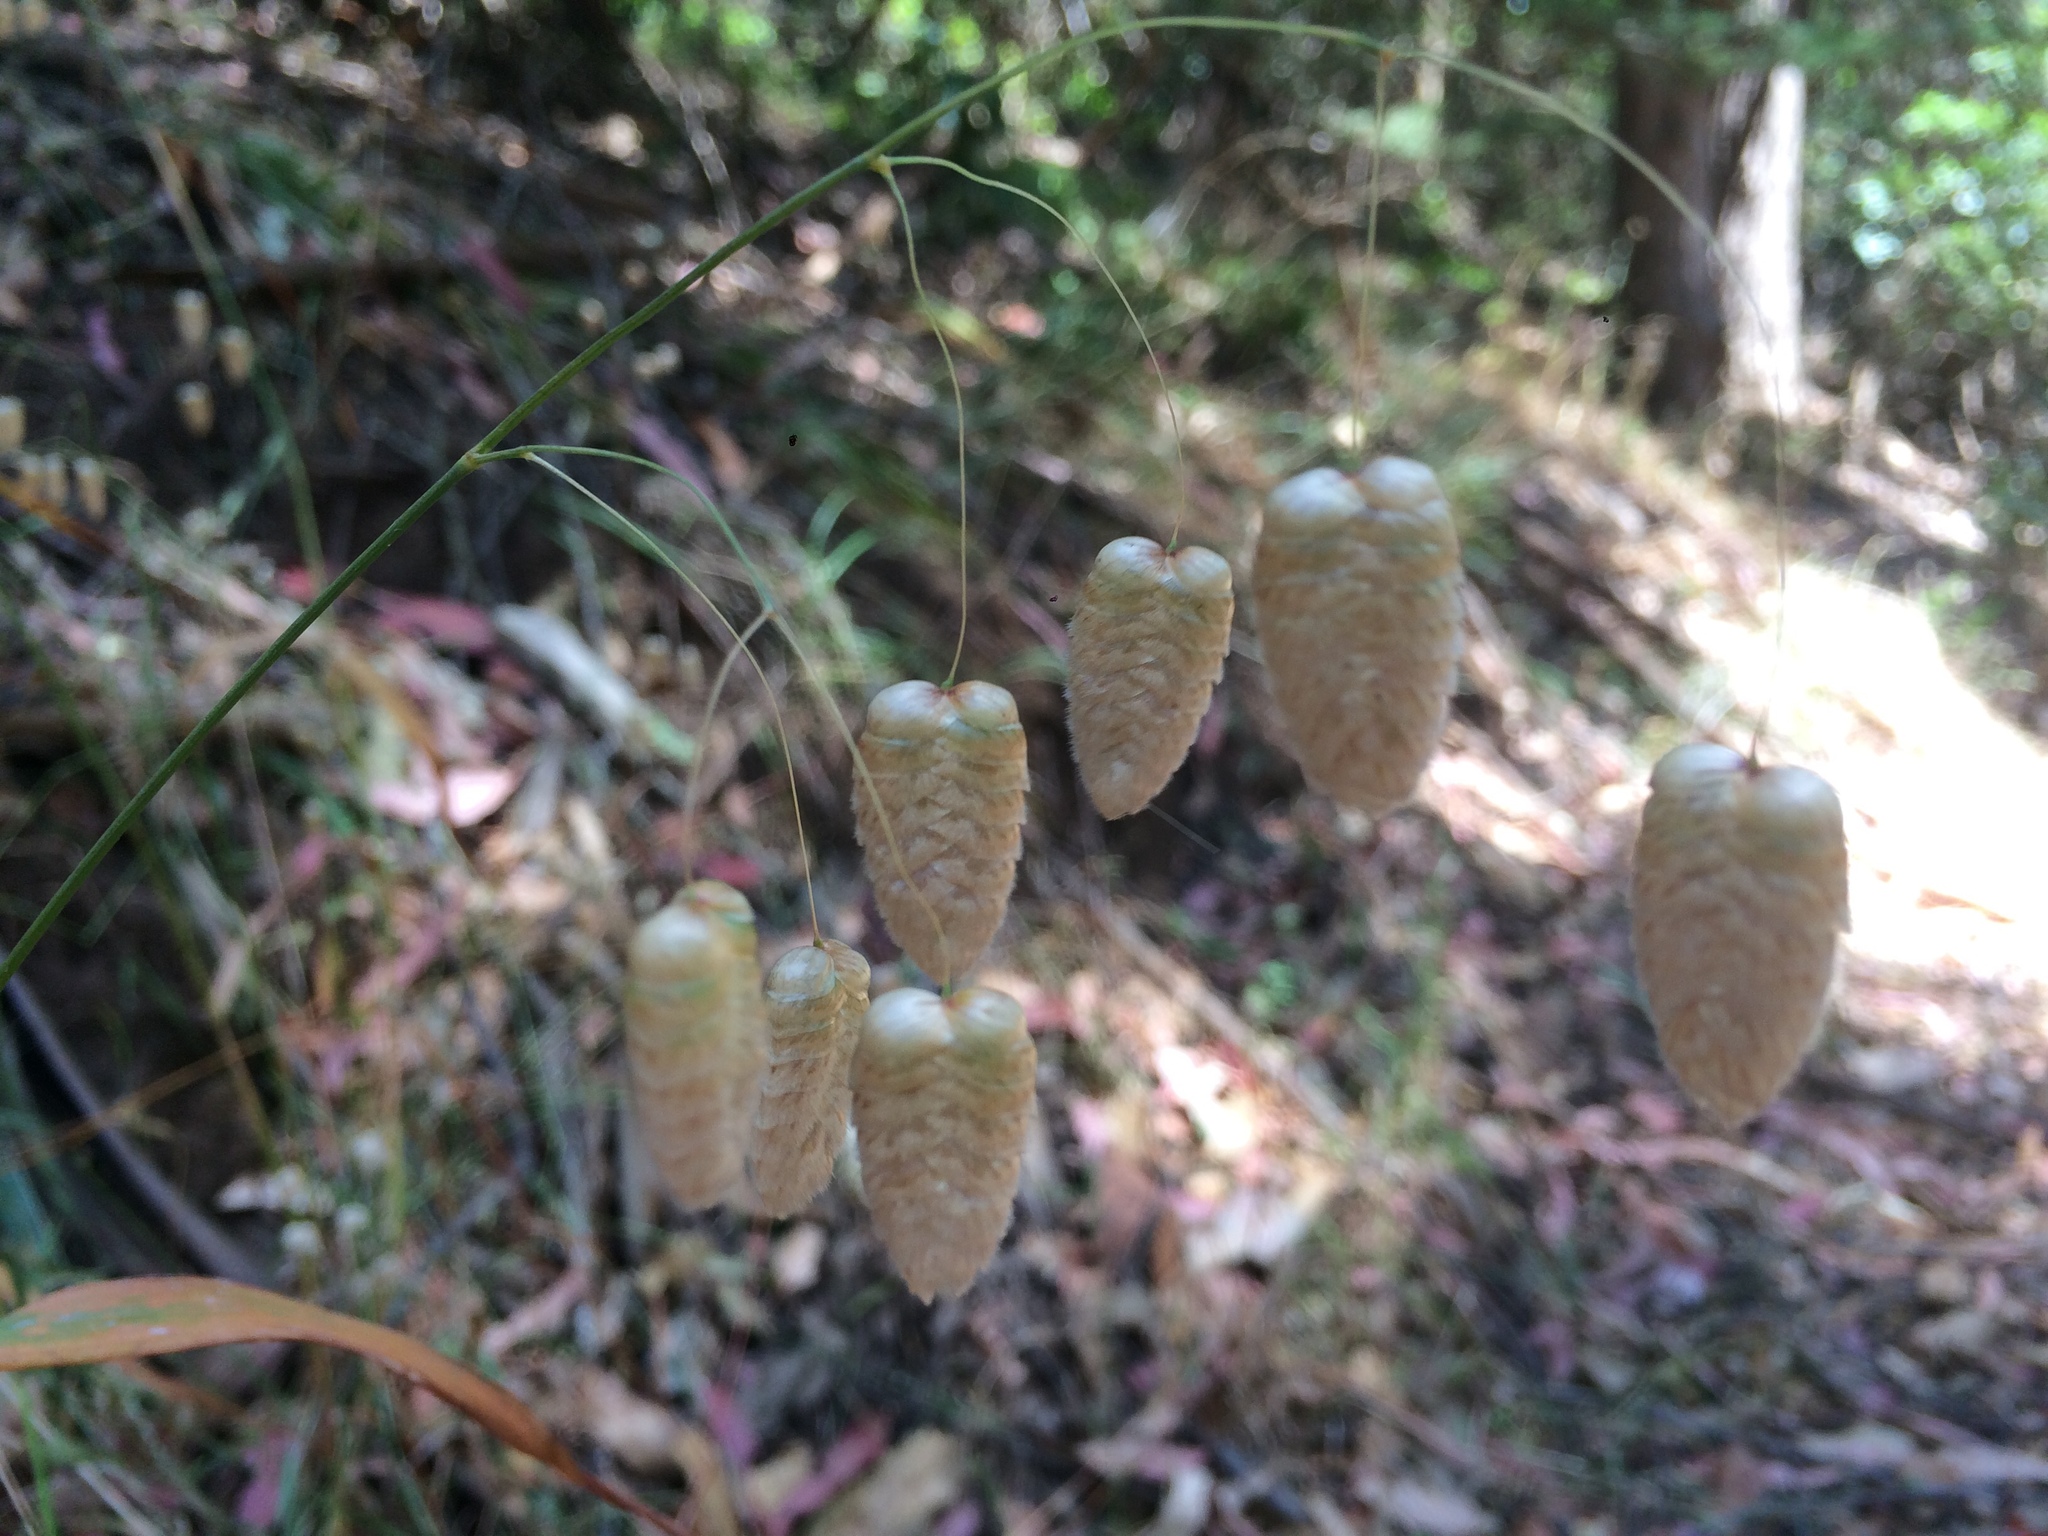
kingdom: Plantae
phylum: Tracheophyta
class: Liliopsida
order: Poales
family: Poaceae
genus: Briza
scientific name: Briza maxima
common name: Big quakinggrass
